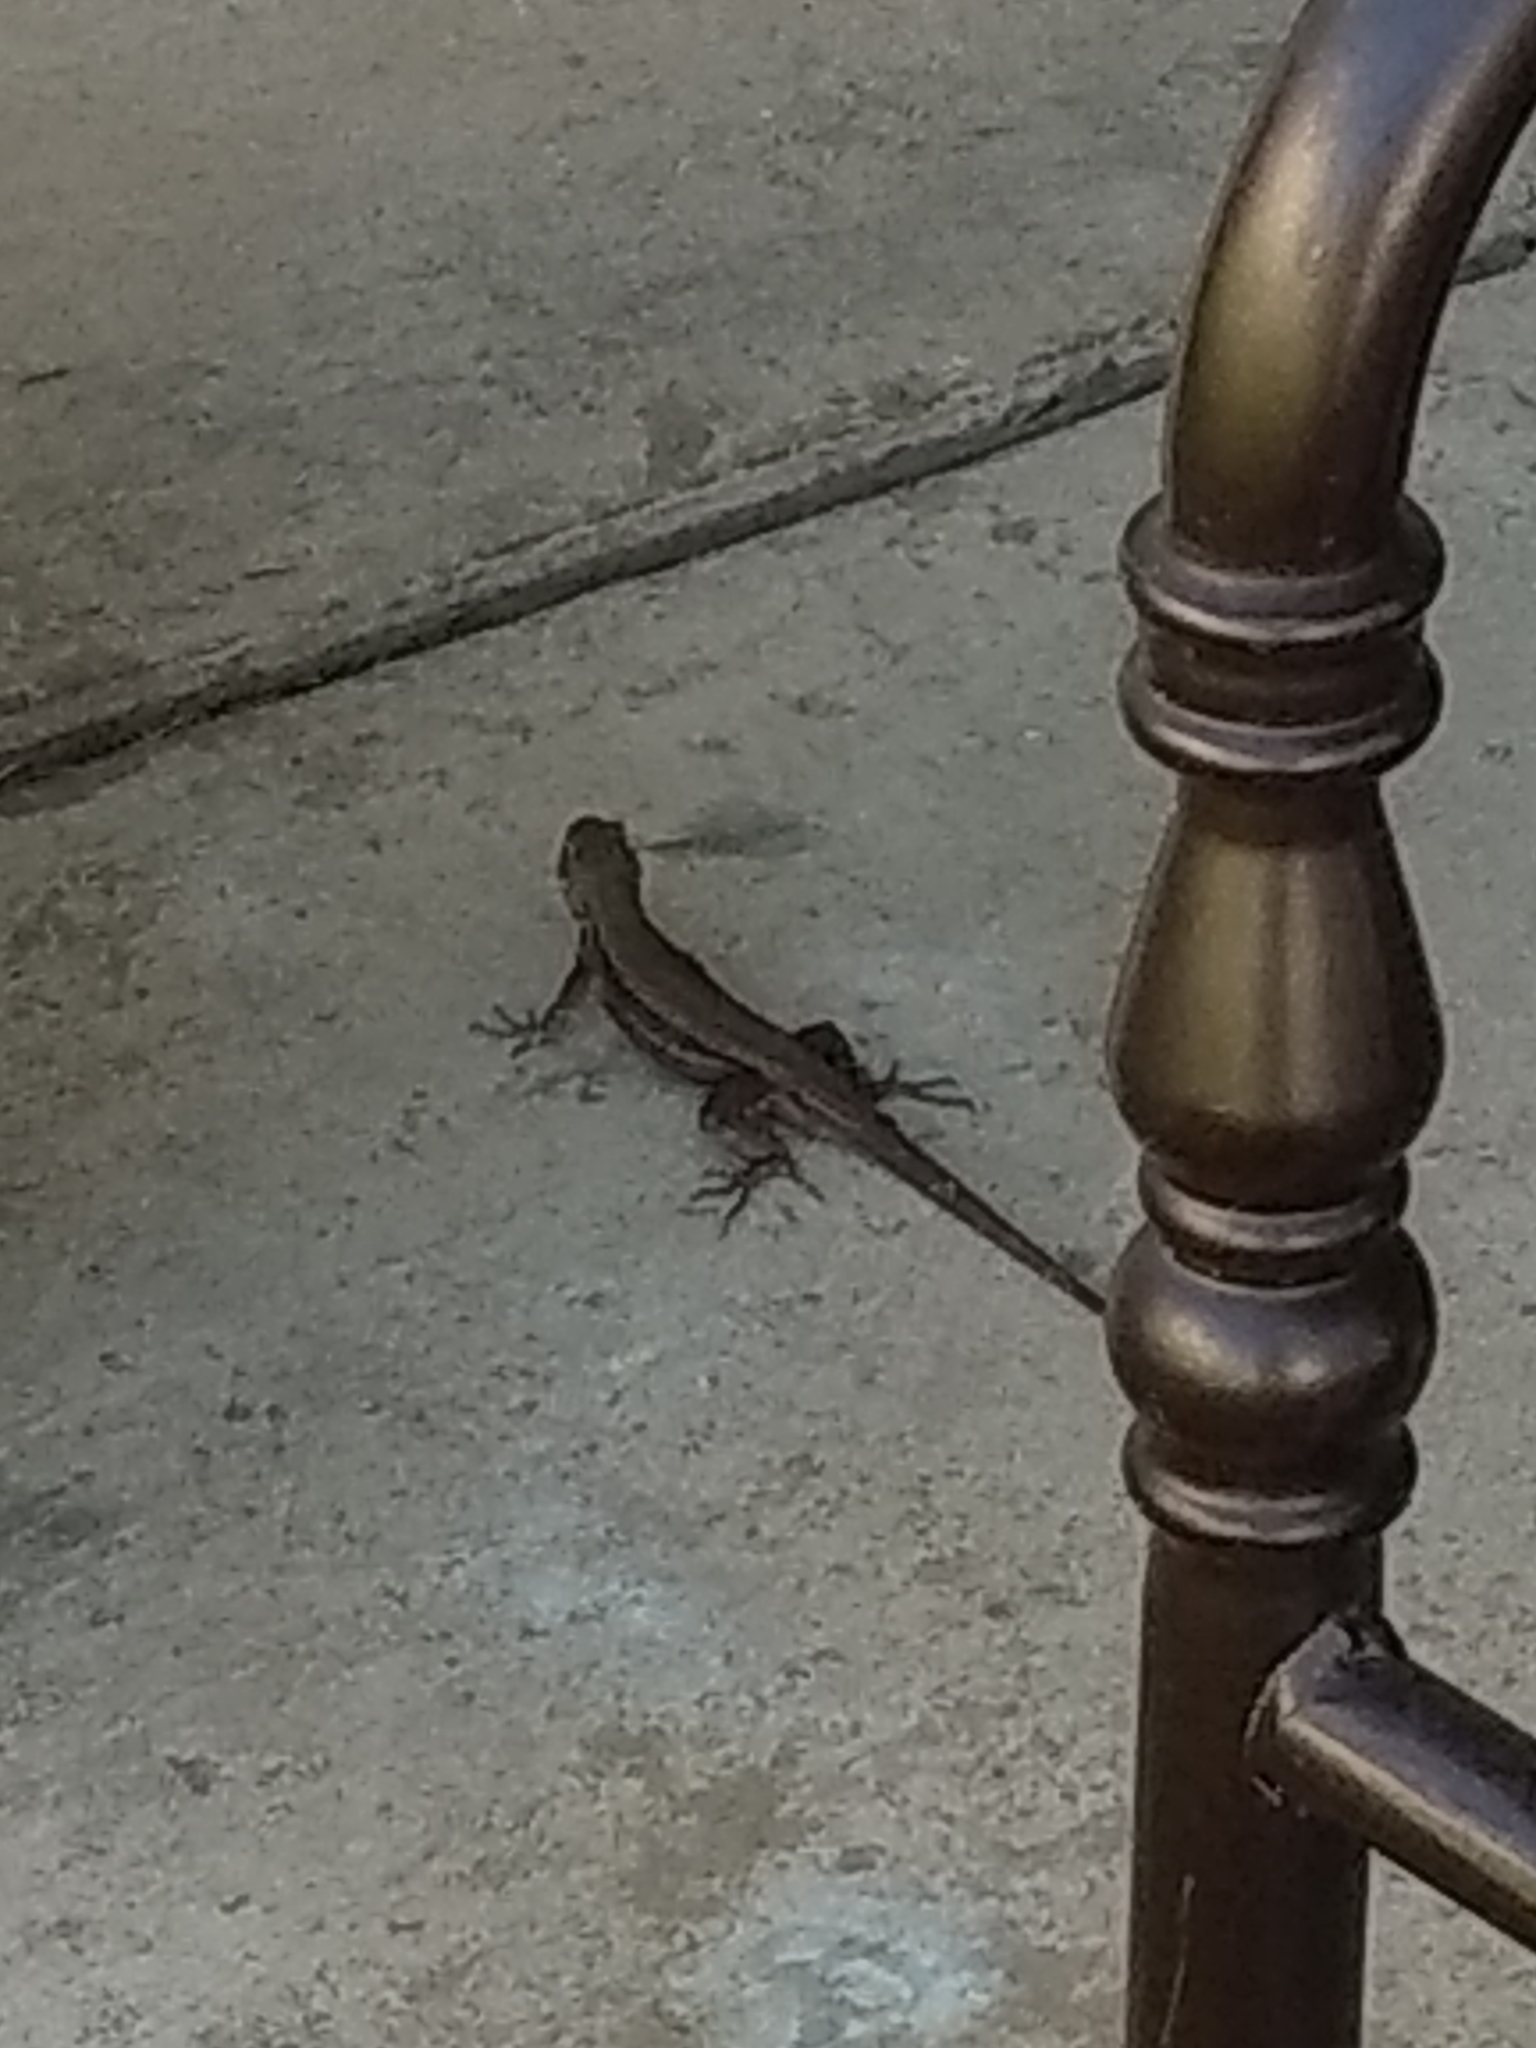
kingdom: Animalia
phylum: Chordata
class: Squamata
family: Phrynosomatidae
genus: Sceloporus
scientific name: Sceloporus occidentalis
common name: Western fence lizard
